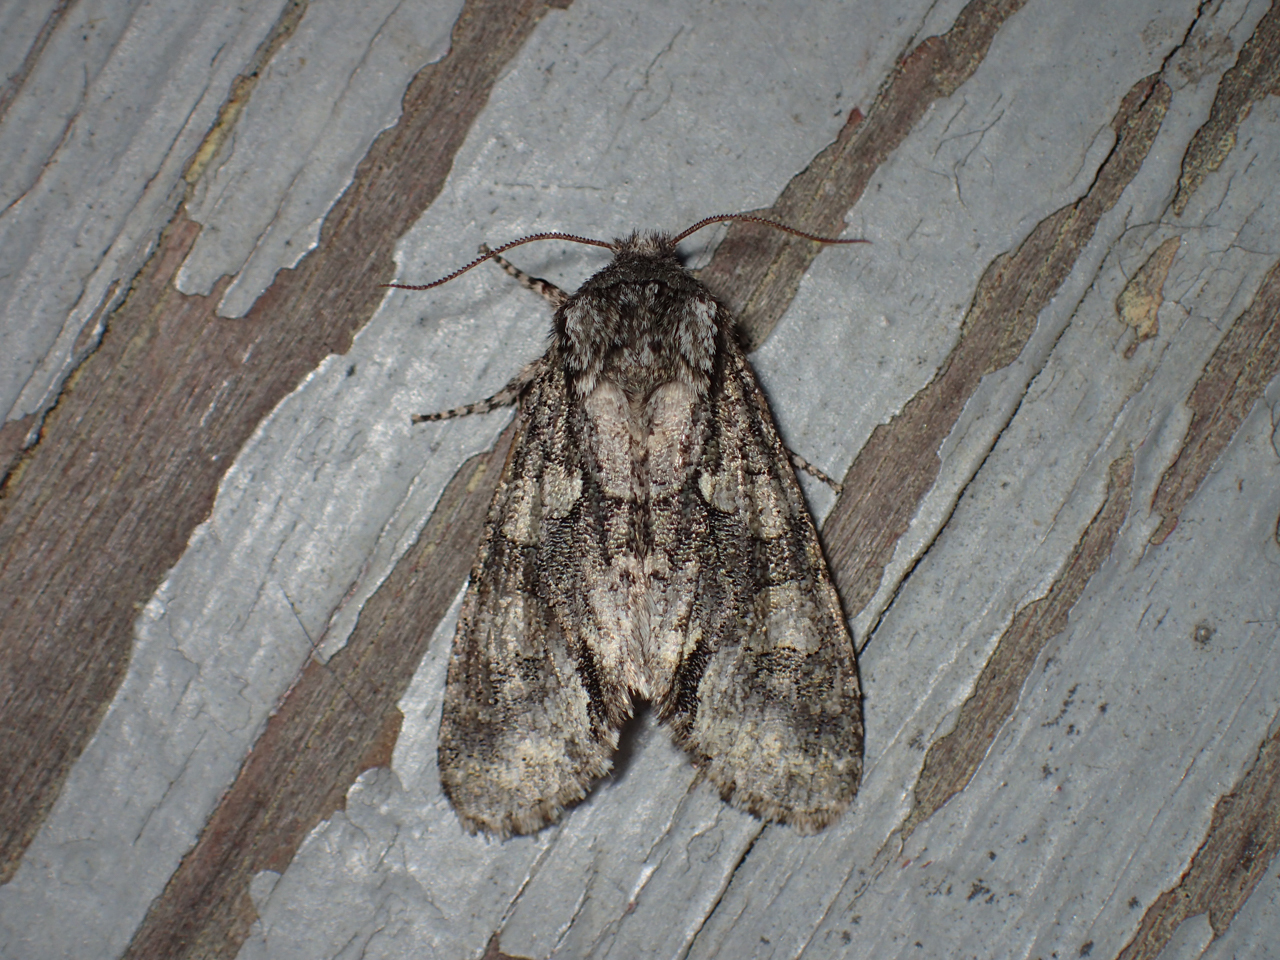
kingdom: Animalia
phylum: Arthropoda
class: Insecta
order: Lepidoptera
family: Noctuidae
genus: Psaphida
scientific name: Psaphida resumens
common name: Figure-eight sallow
